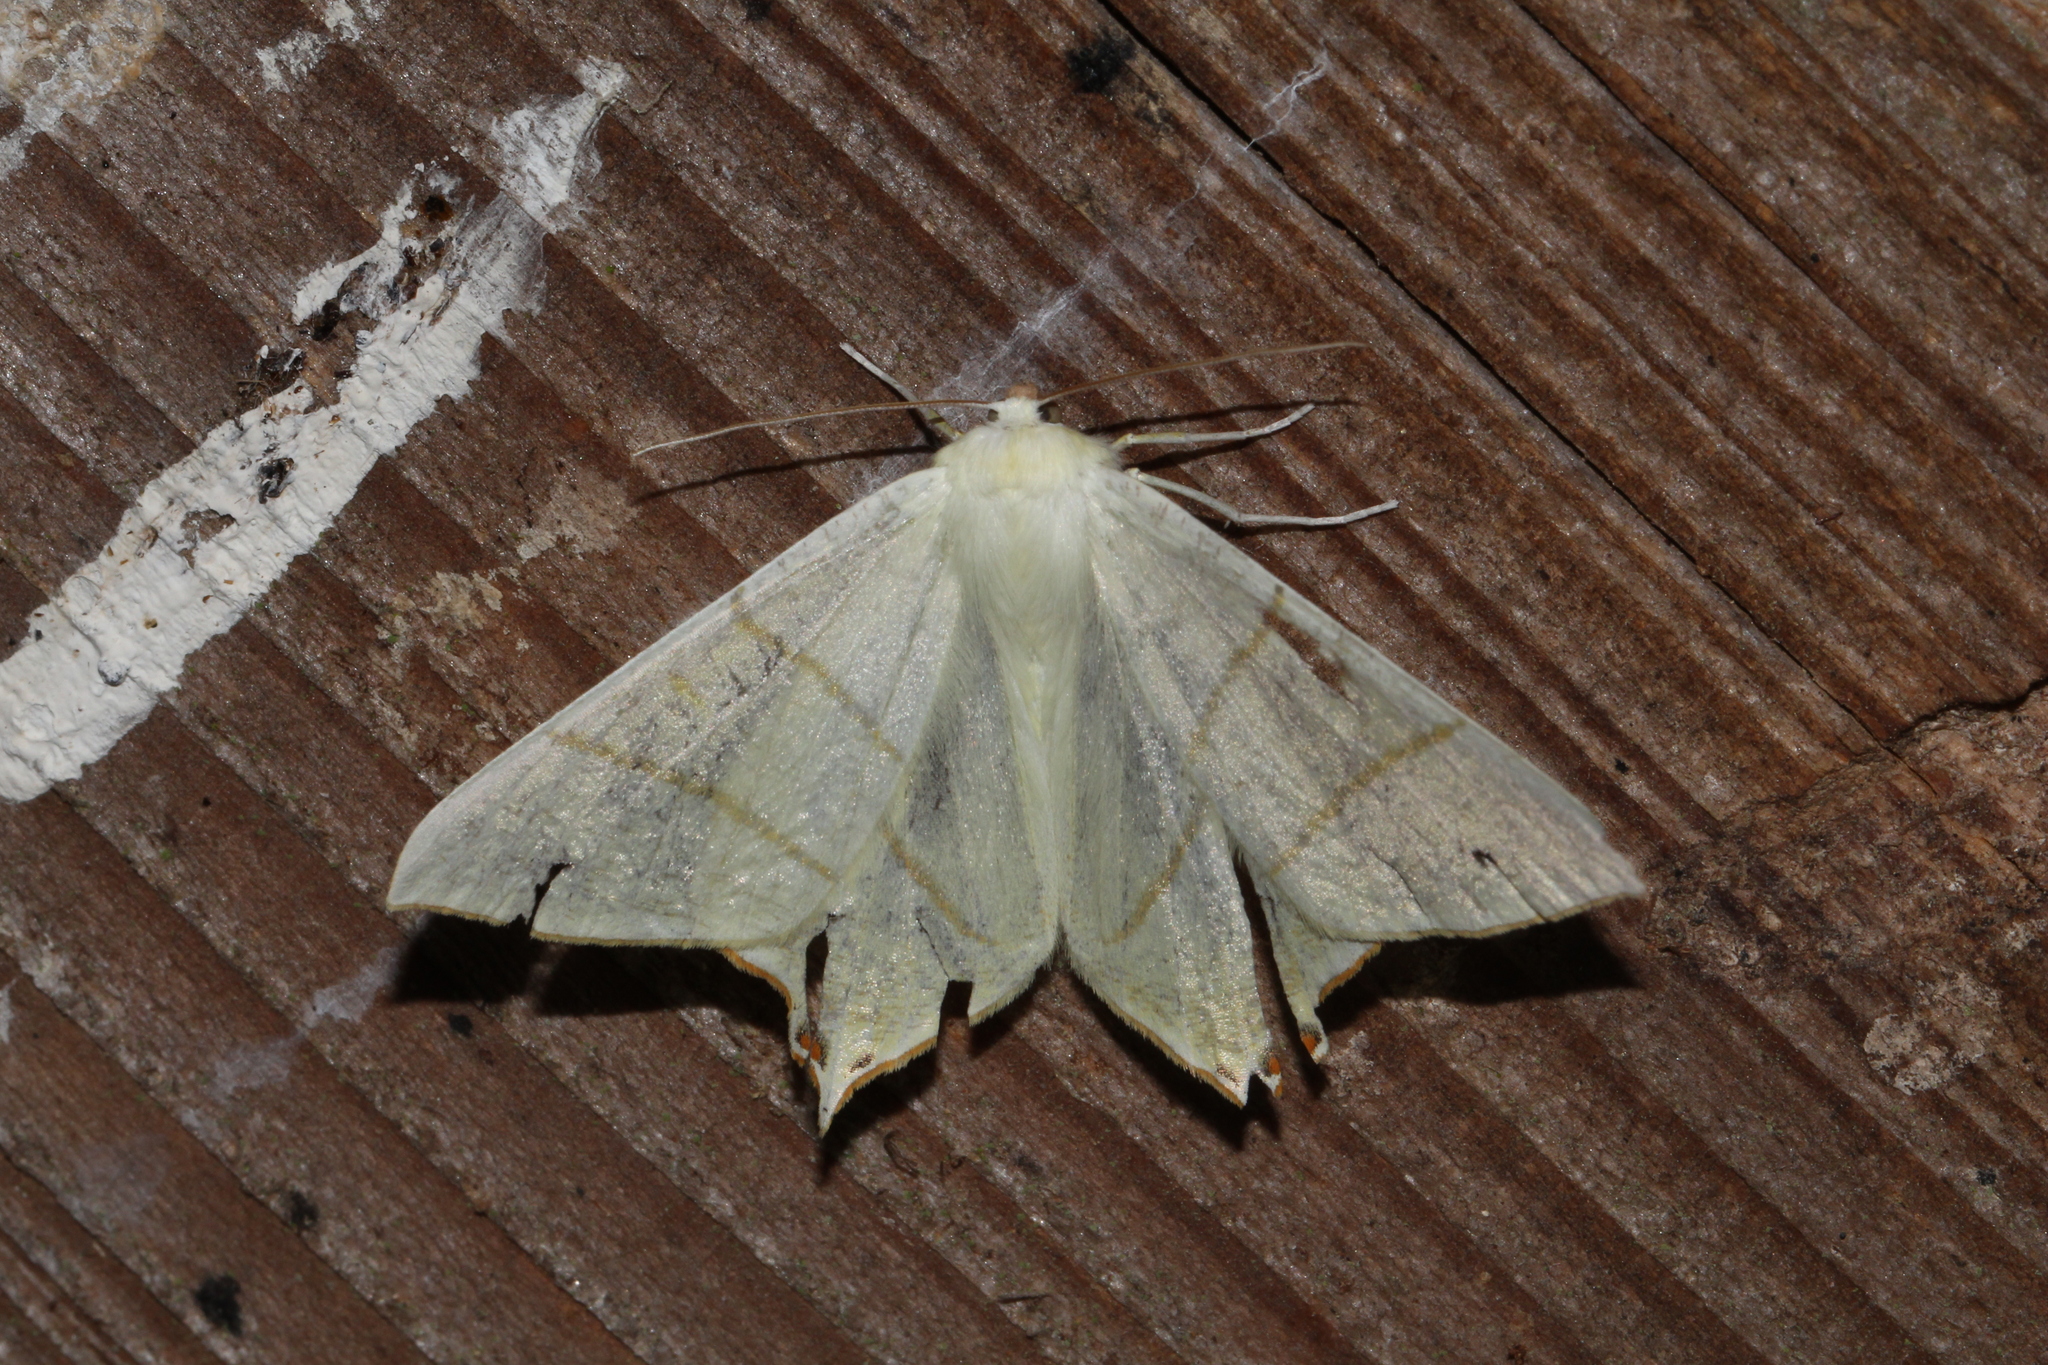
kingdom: Animalia
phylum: Arthropoda
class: Insecta
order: Lepidoptera
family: Geometridae
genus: Ourapteryx
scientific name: Ourapteryx sambucaria
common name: Swallow-tailed moth
